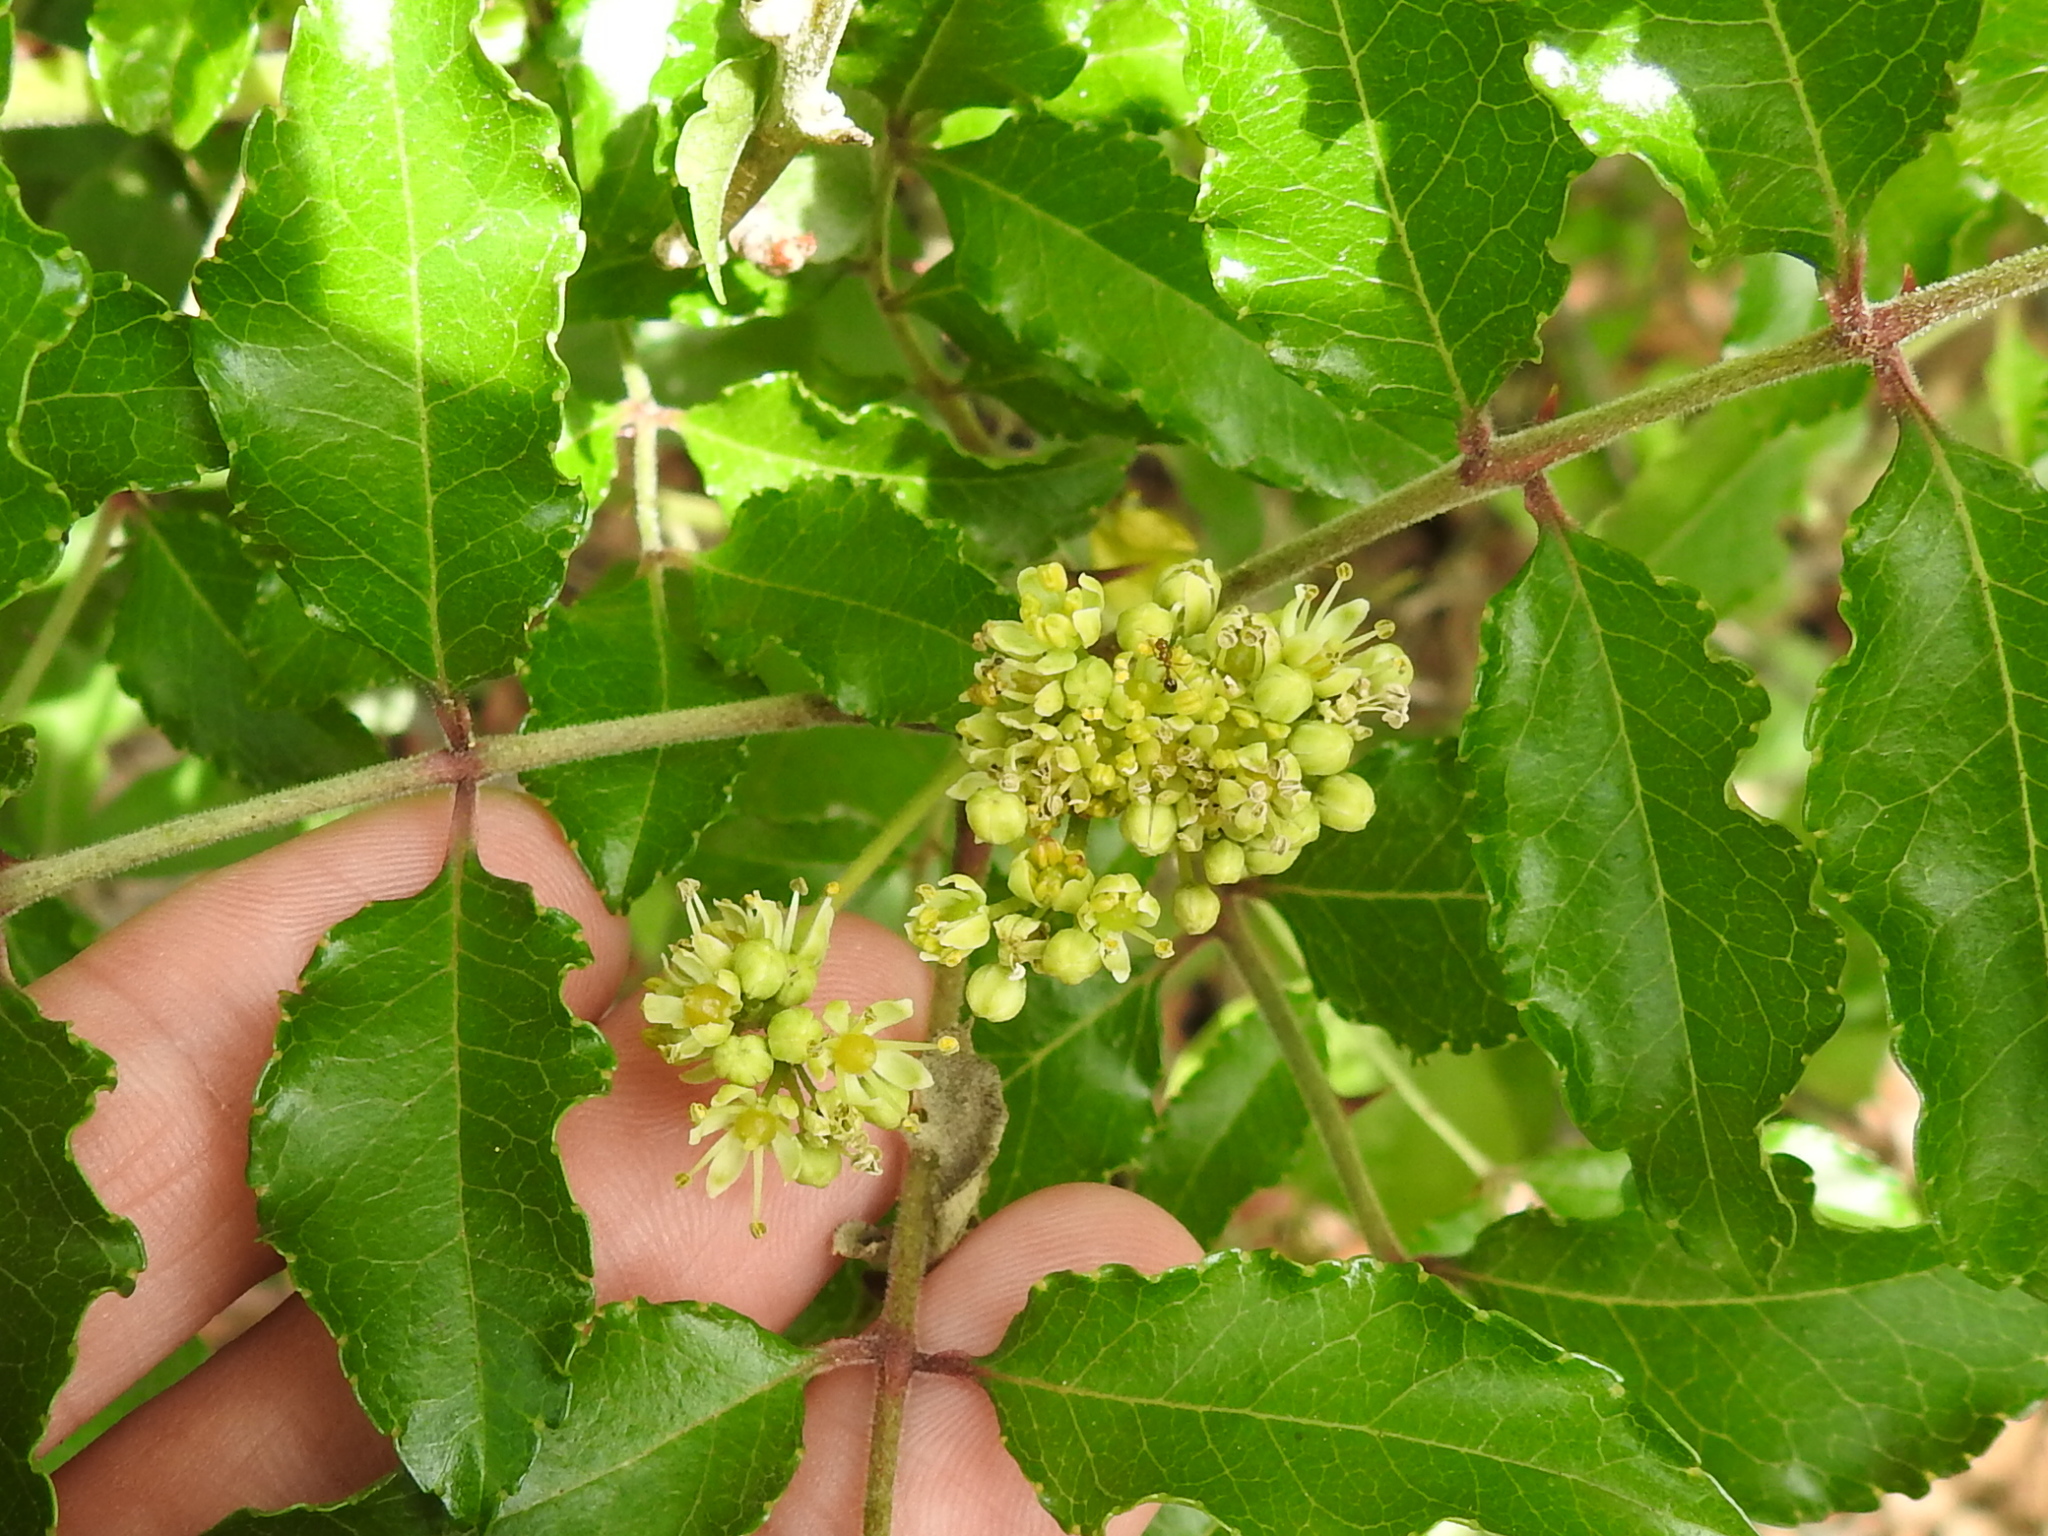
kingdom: Plantae
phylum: Tracheophyta
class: Magnoliopsida
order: Sapindales
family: Rutaceae
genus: Zanthoxylum
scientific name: Zanthoxylum clava-herculis
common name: Hercules'-club
